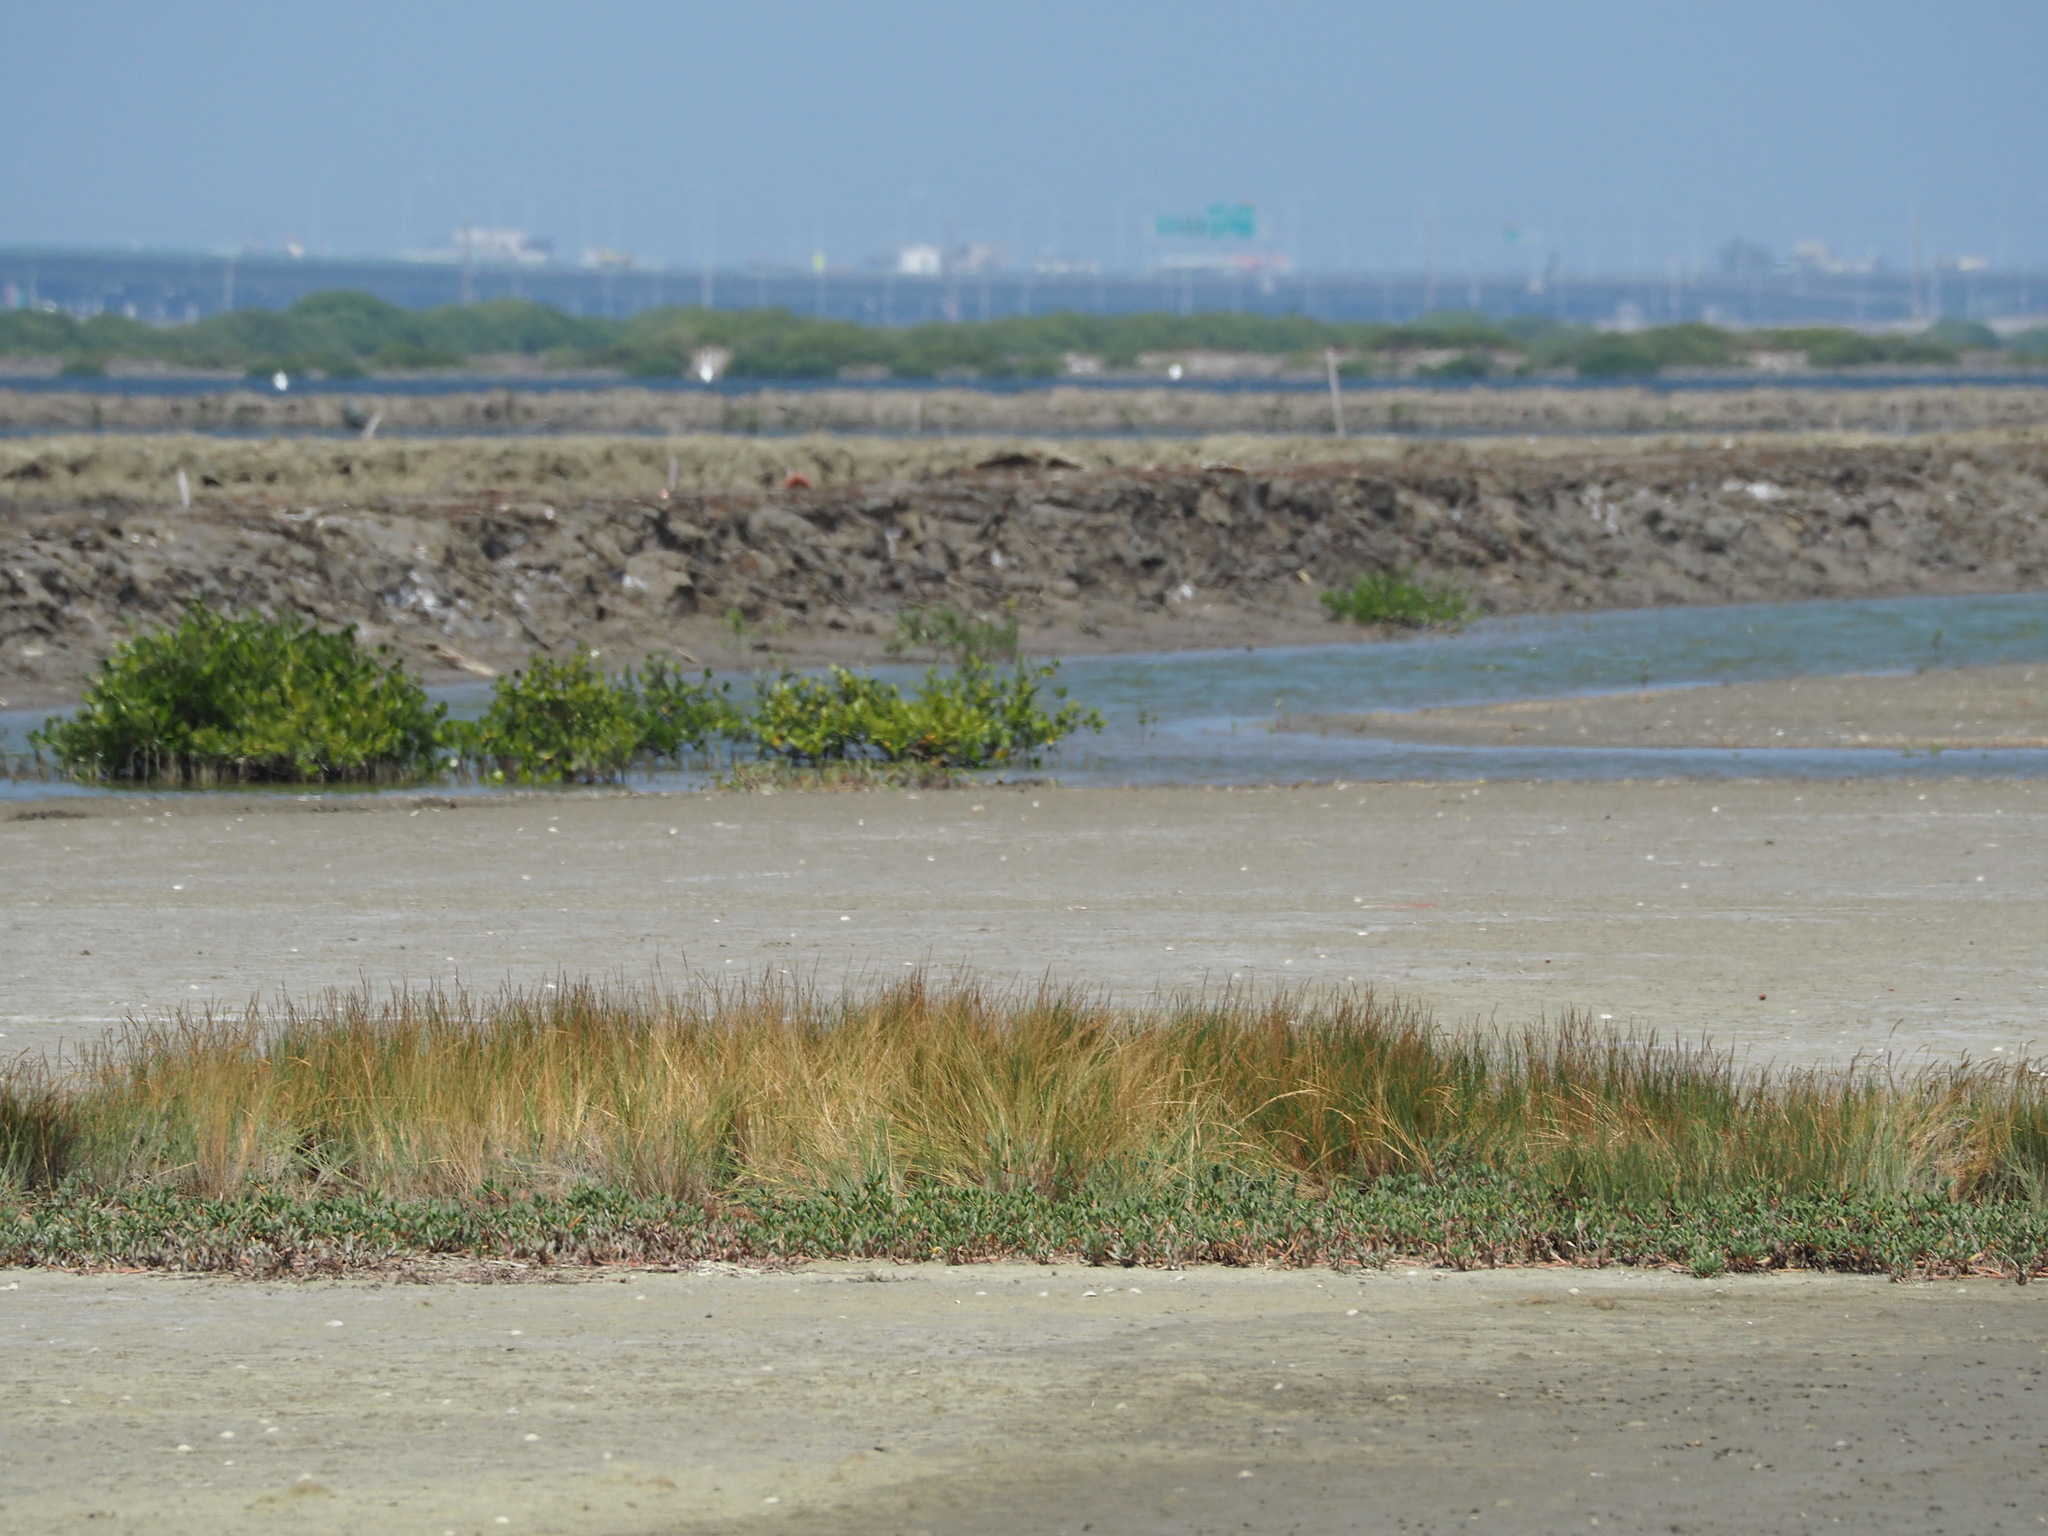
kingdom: Plantae
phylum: Tracheophyta
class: Liliopsida
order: Poales
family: Poaceae
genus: Sporobolus
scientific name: Sporobolus virginicus
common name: Beach dropseed
